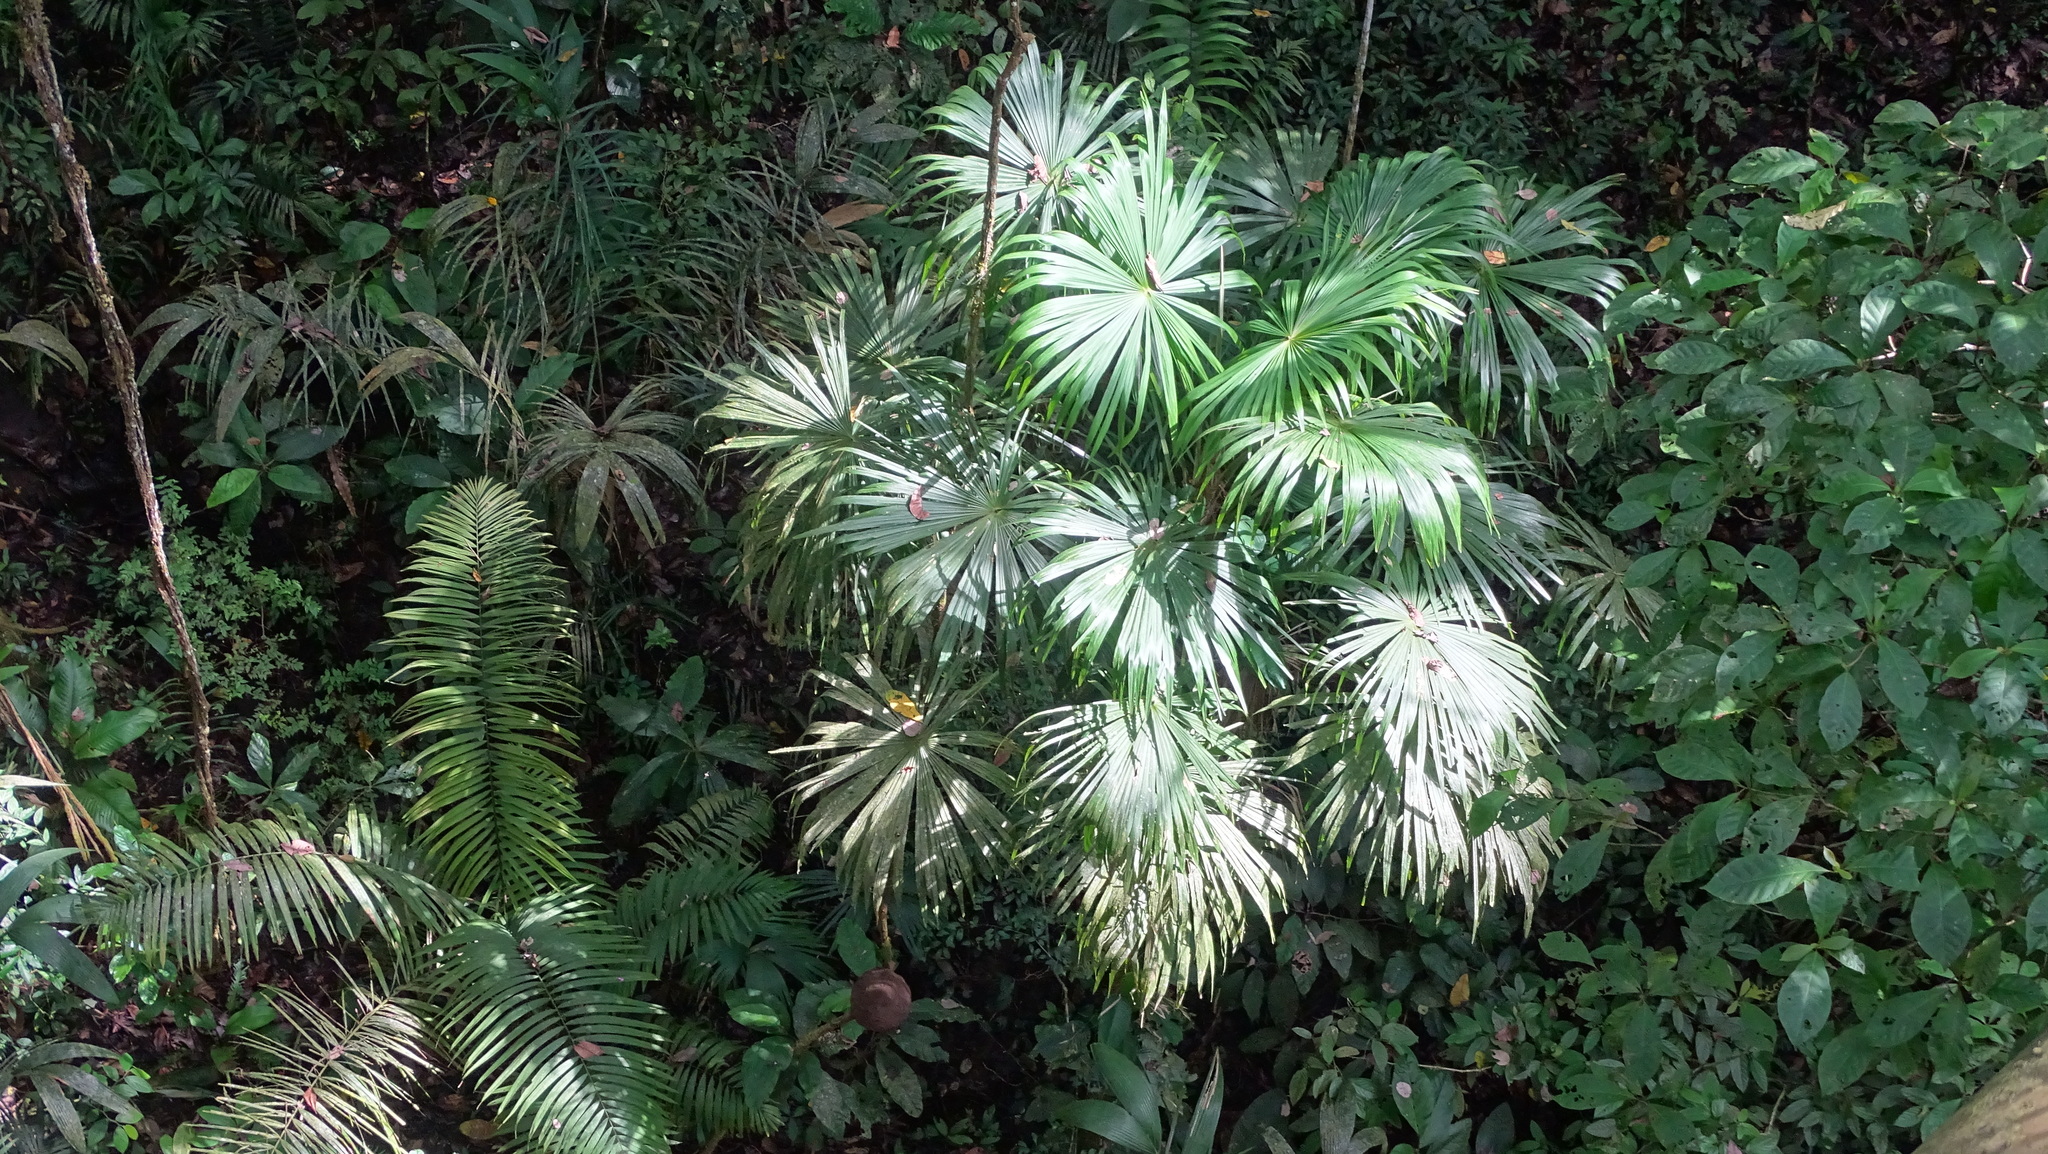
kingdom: Plantae
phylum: Tracheophyta
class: Liliopsida
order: Arecales
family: Arecaceae
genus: Cryosophila
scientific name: Cryosophila warscewiczii
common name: Root-spine palm
